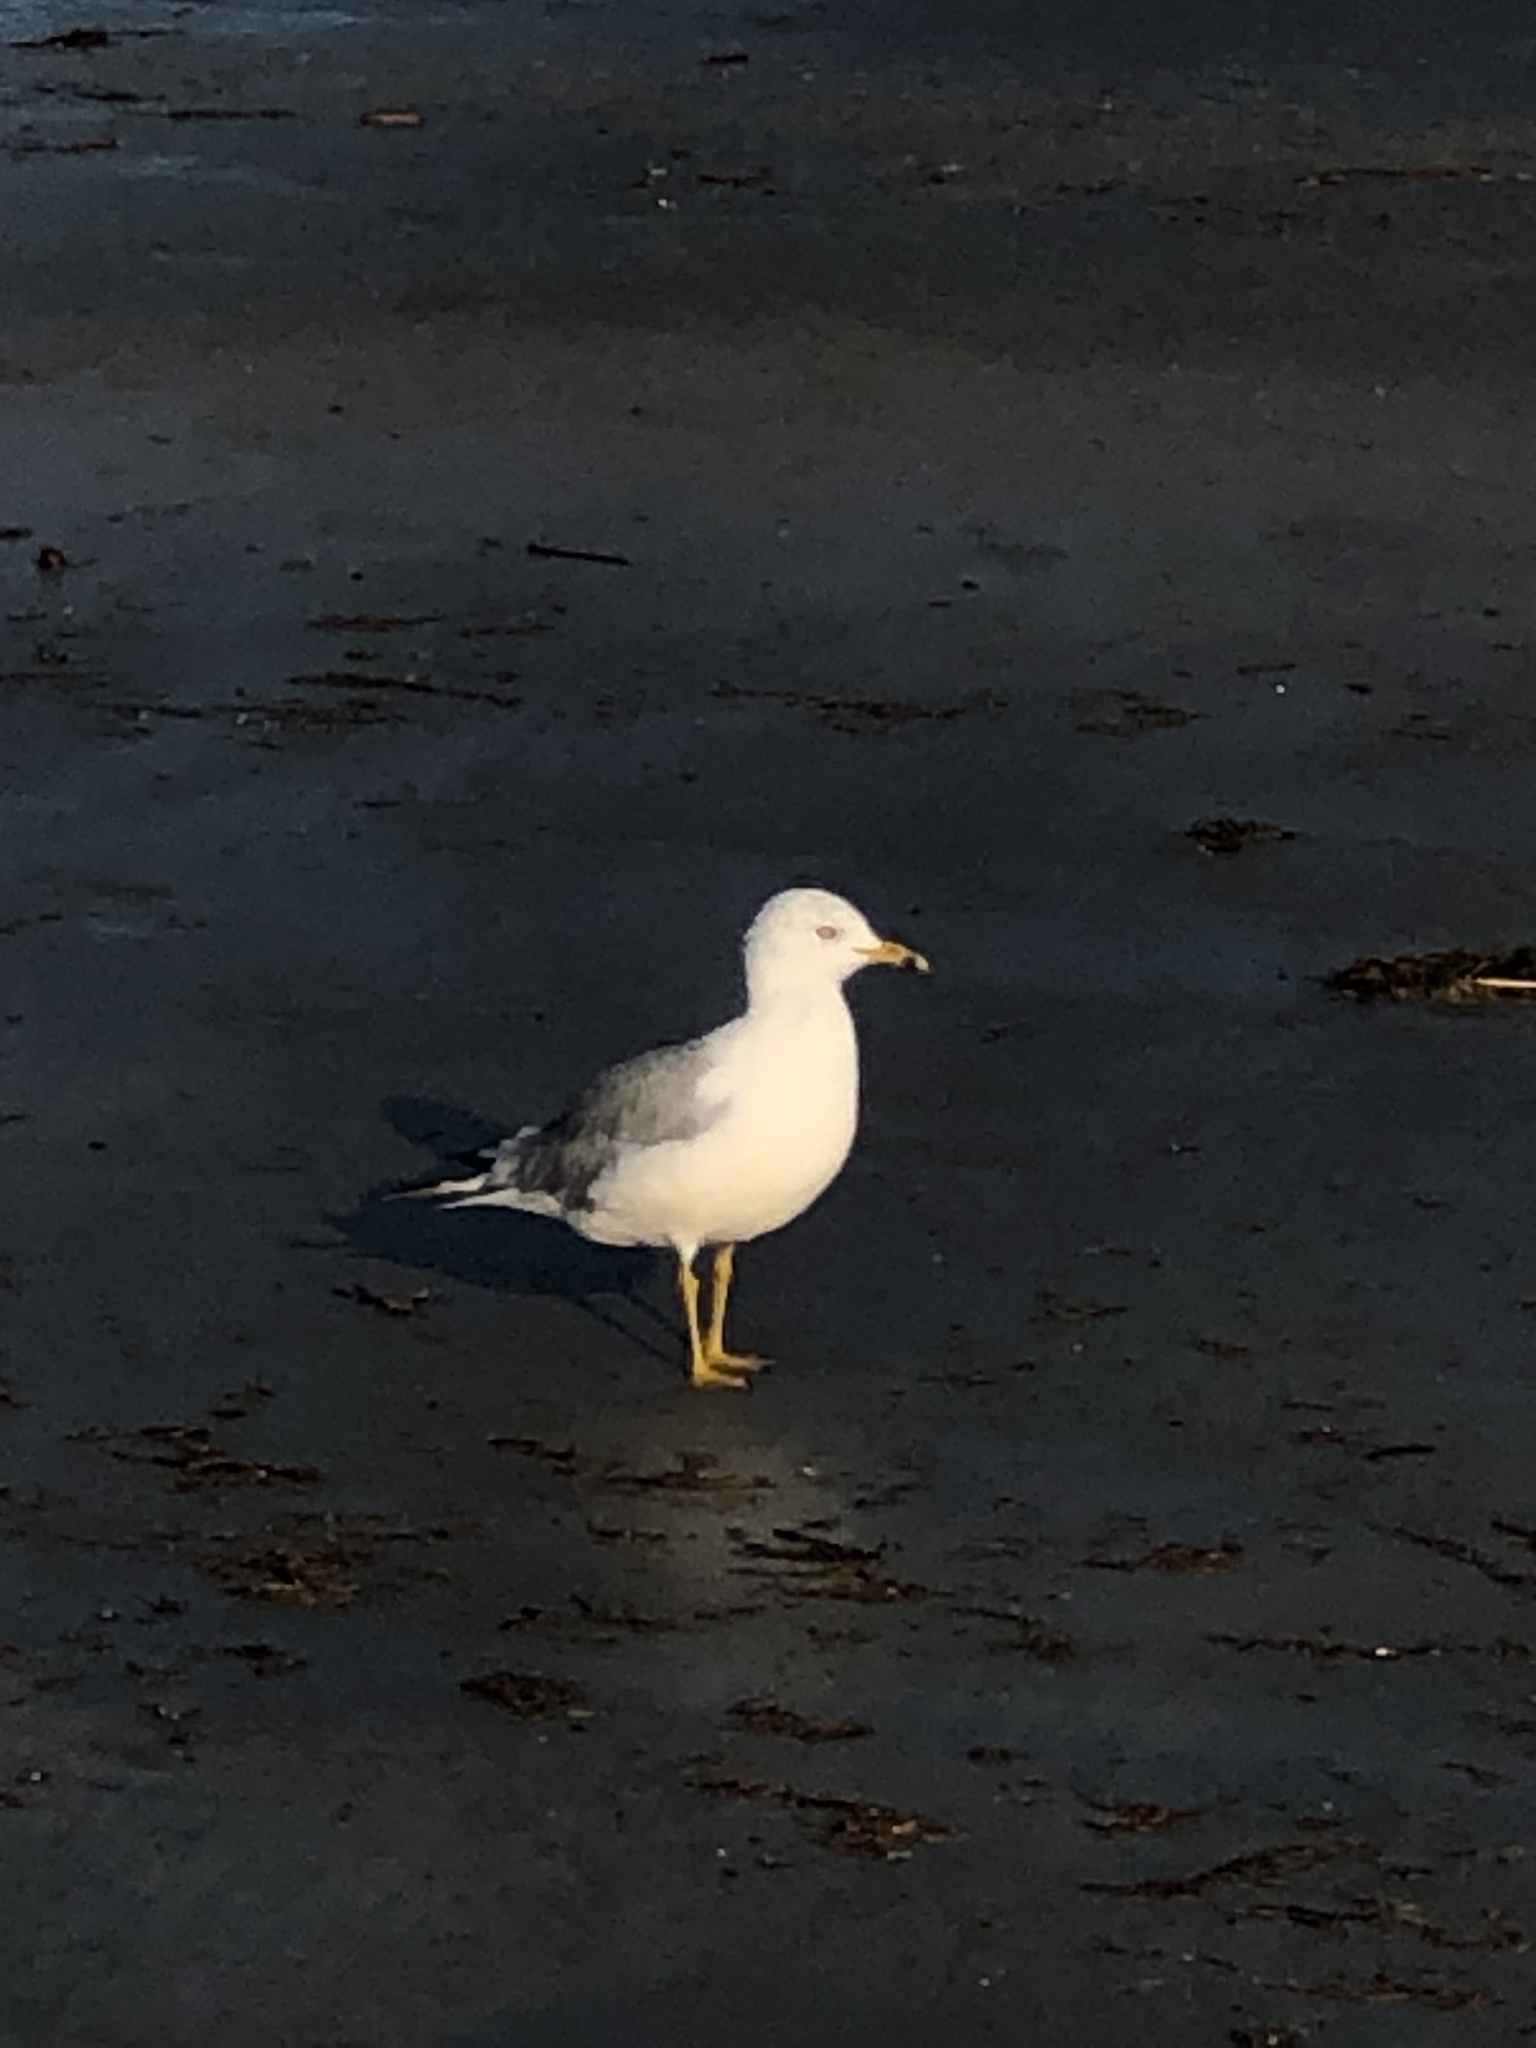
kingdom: Animalia
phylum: Chordata
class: Aves
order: Charadriiformes
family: Laridae
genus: Larus
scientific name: Larus delawarensis
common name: Ring-billed gull
